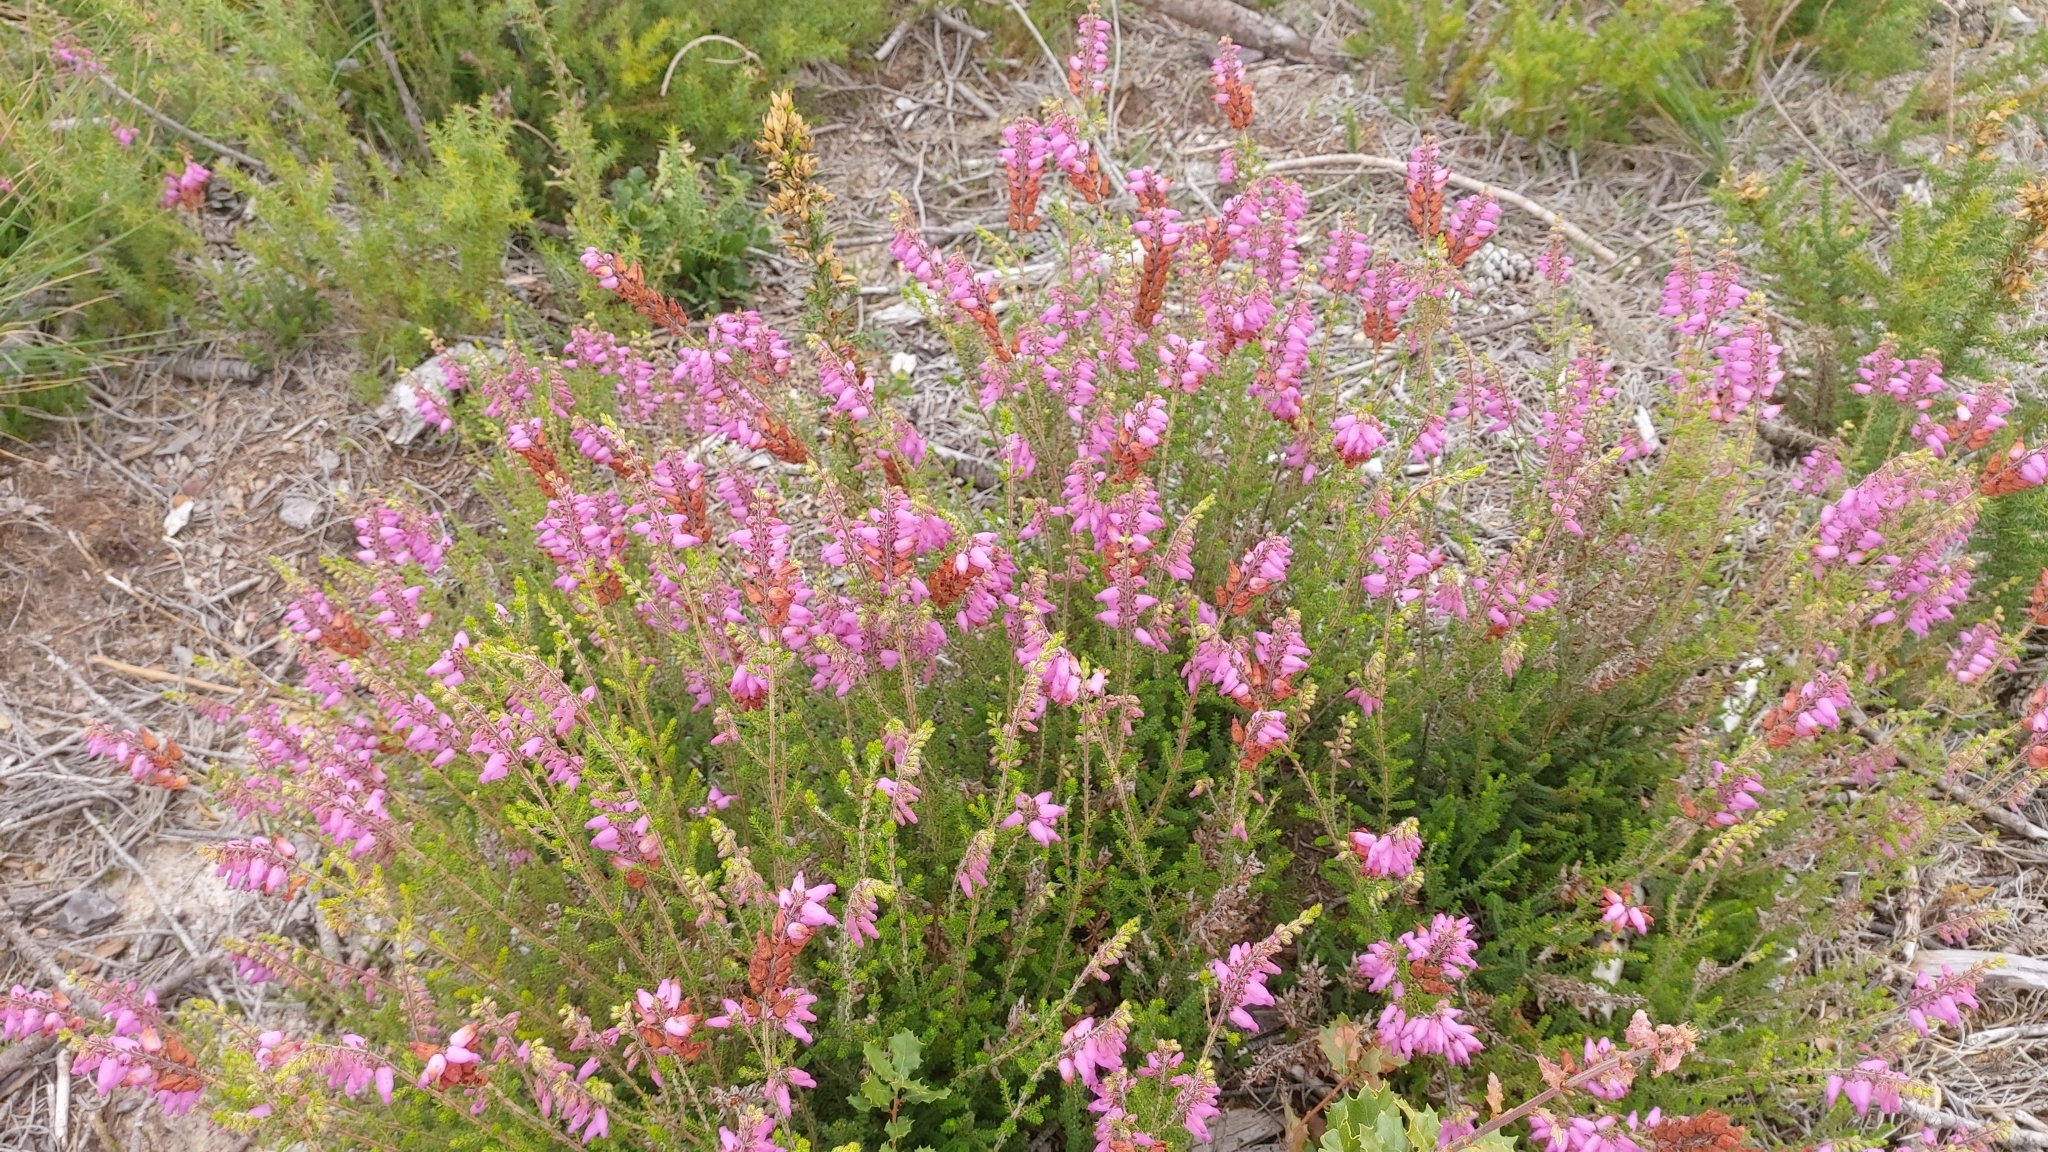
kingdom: Plantae
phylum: Tracheophyta
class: Magnoliopsida
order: Ericales
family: Ericaceae
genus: Erica
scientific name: Erica ciliaris
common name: Dorset heath
